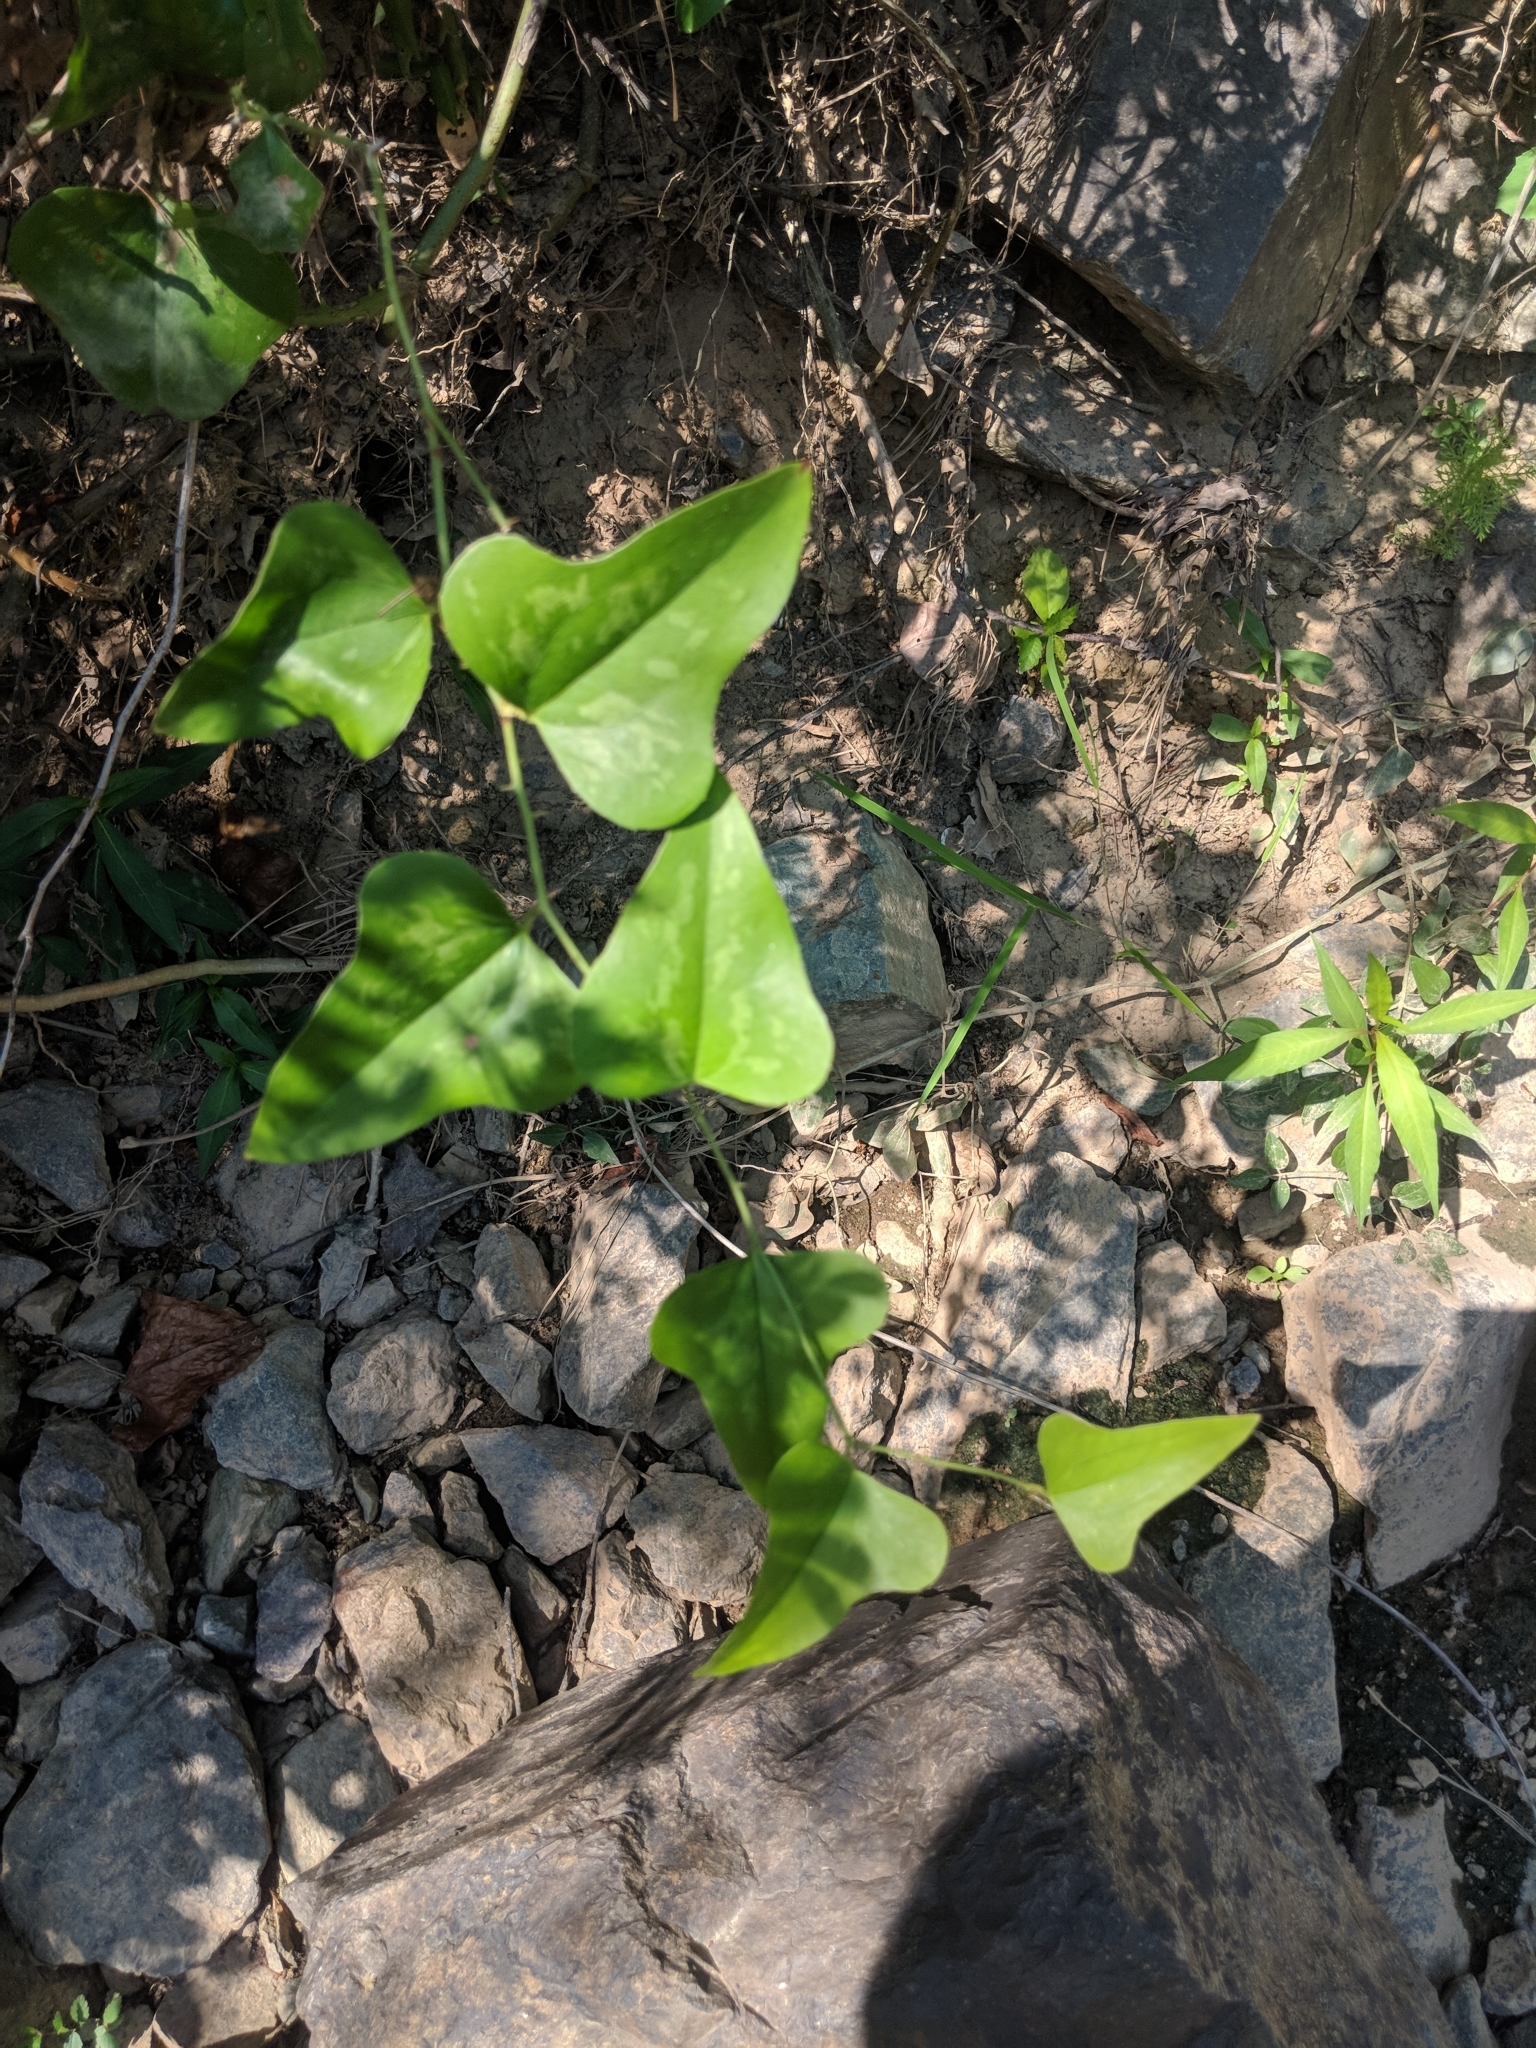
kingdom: Plantae
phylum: Tracheophyta
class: Liliopsida
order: Liliales
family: Smilacaceae
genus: Smilax
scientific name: Smilax bona-nox
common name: Catbrier
